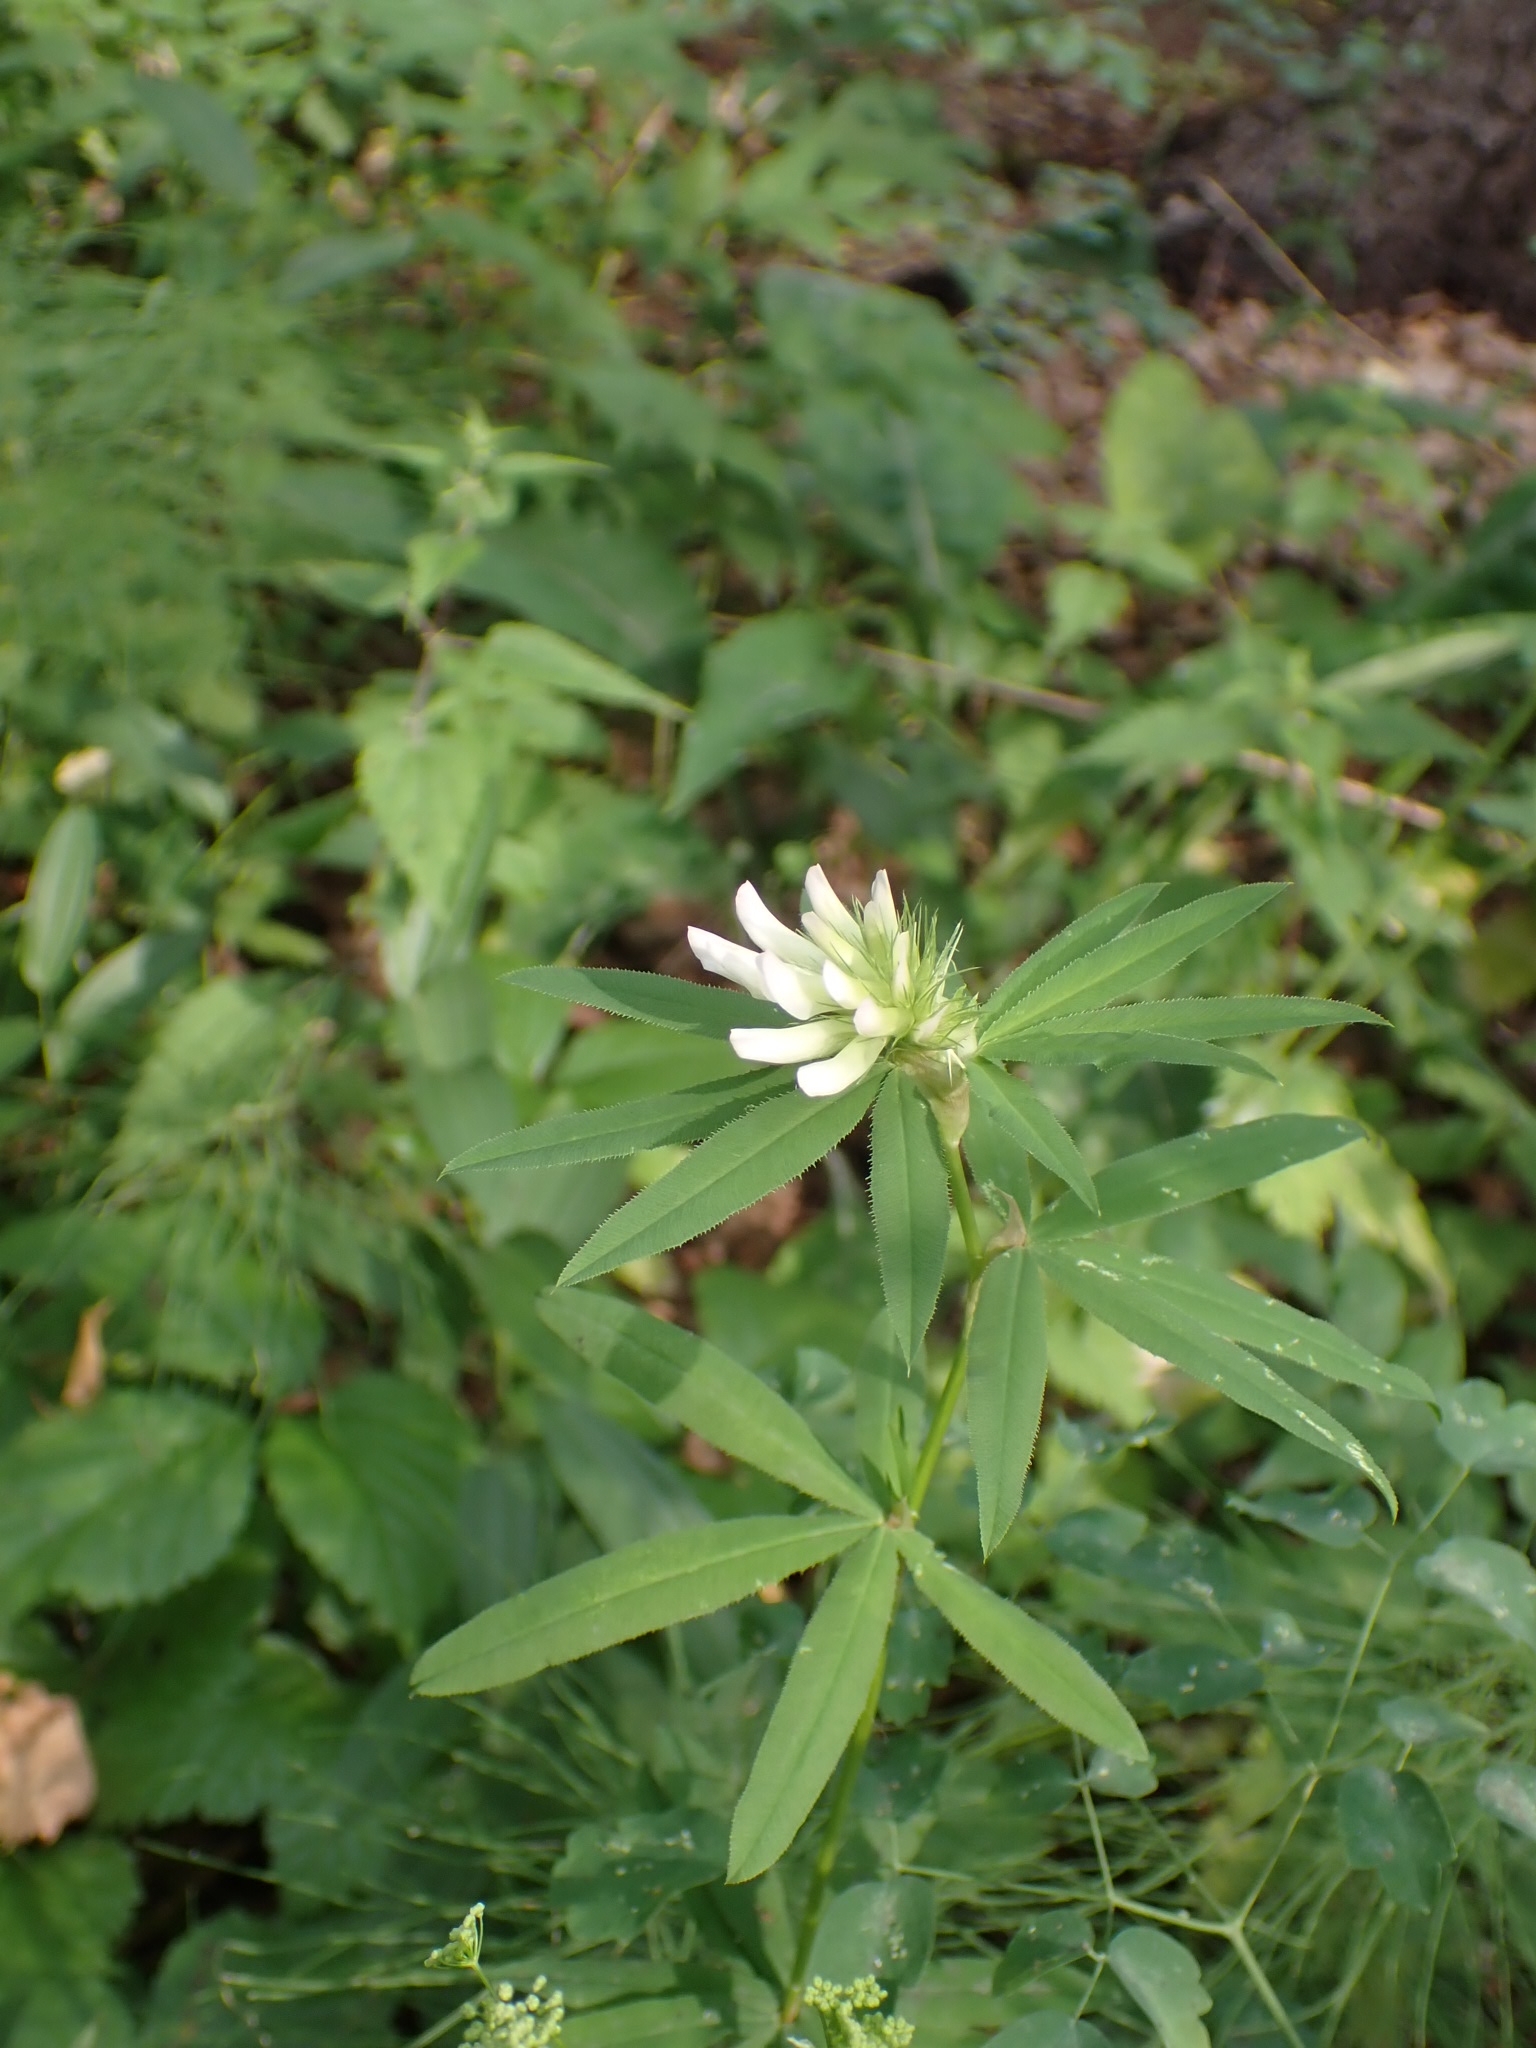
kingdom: Plantae
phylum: Tracheophyta
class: Magnoliopsida
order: Fabales
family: Fabaceae
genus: Trifolium
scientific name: Trifolium lupinaster
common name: Lupine clover
